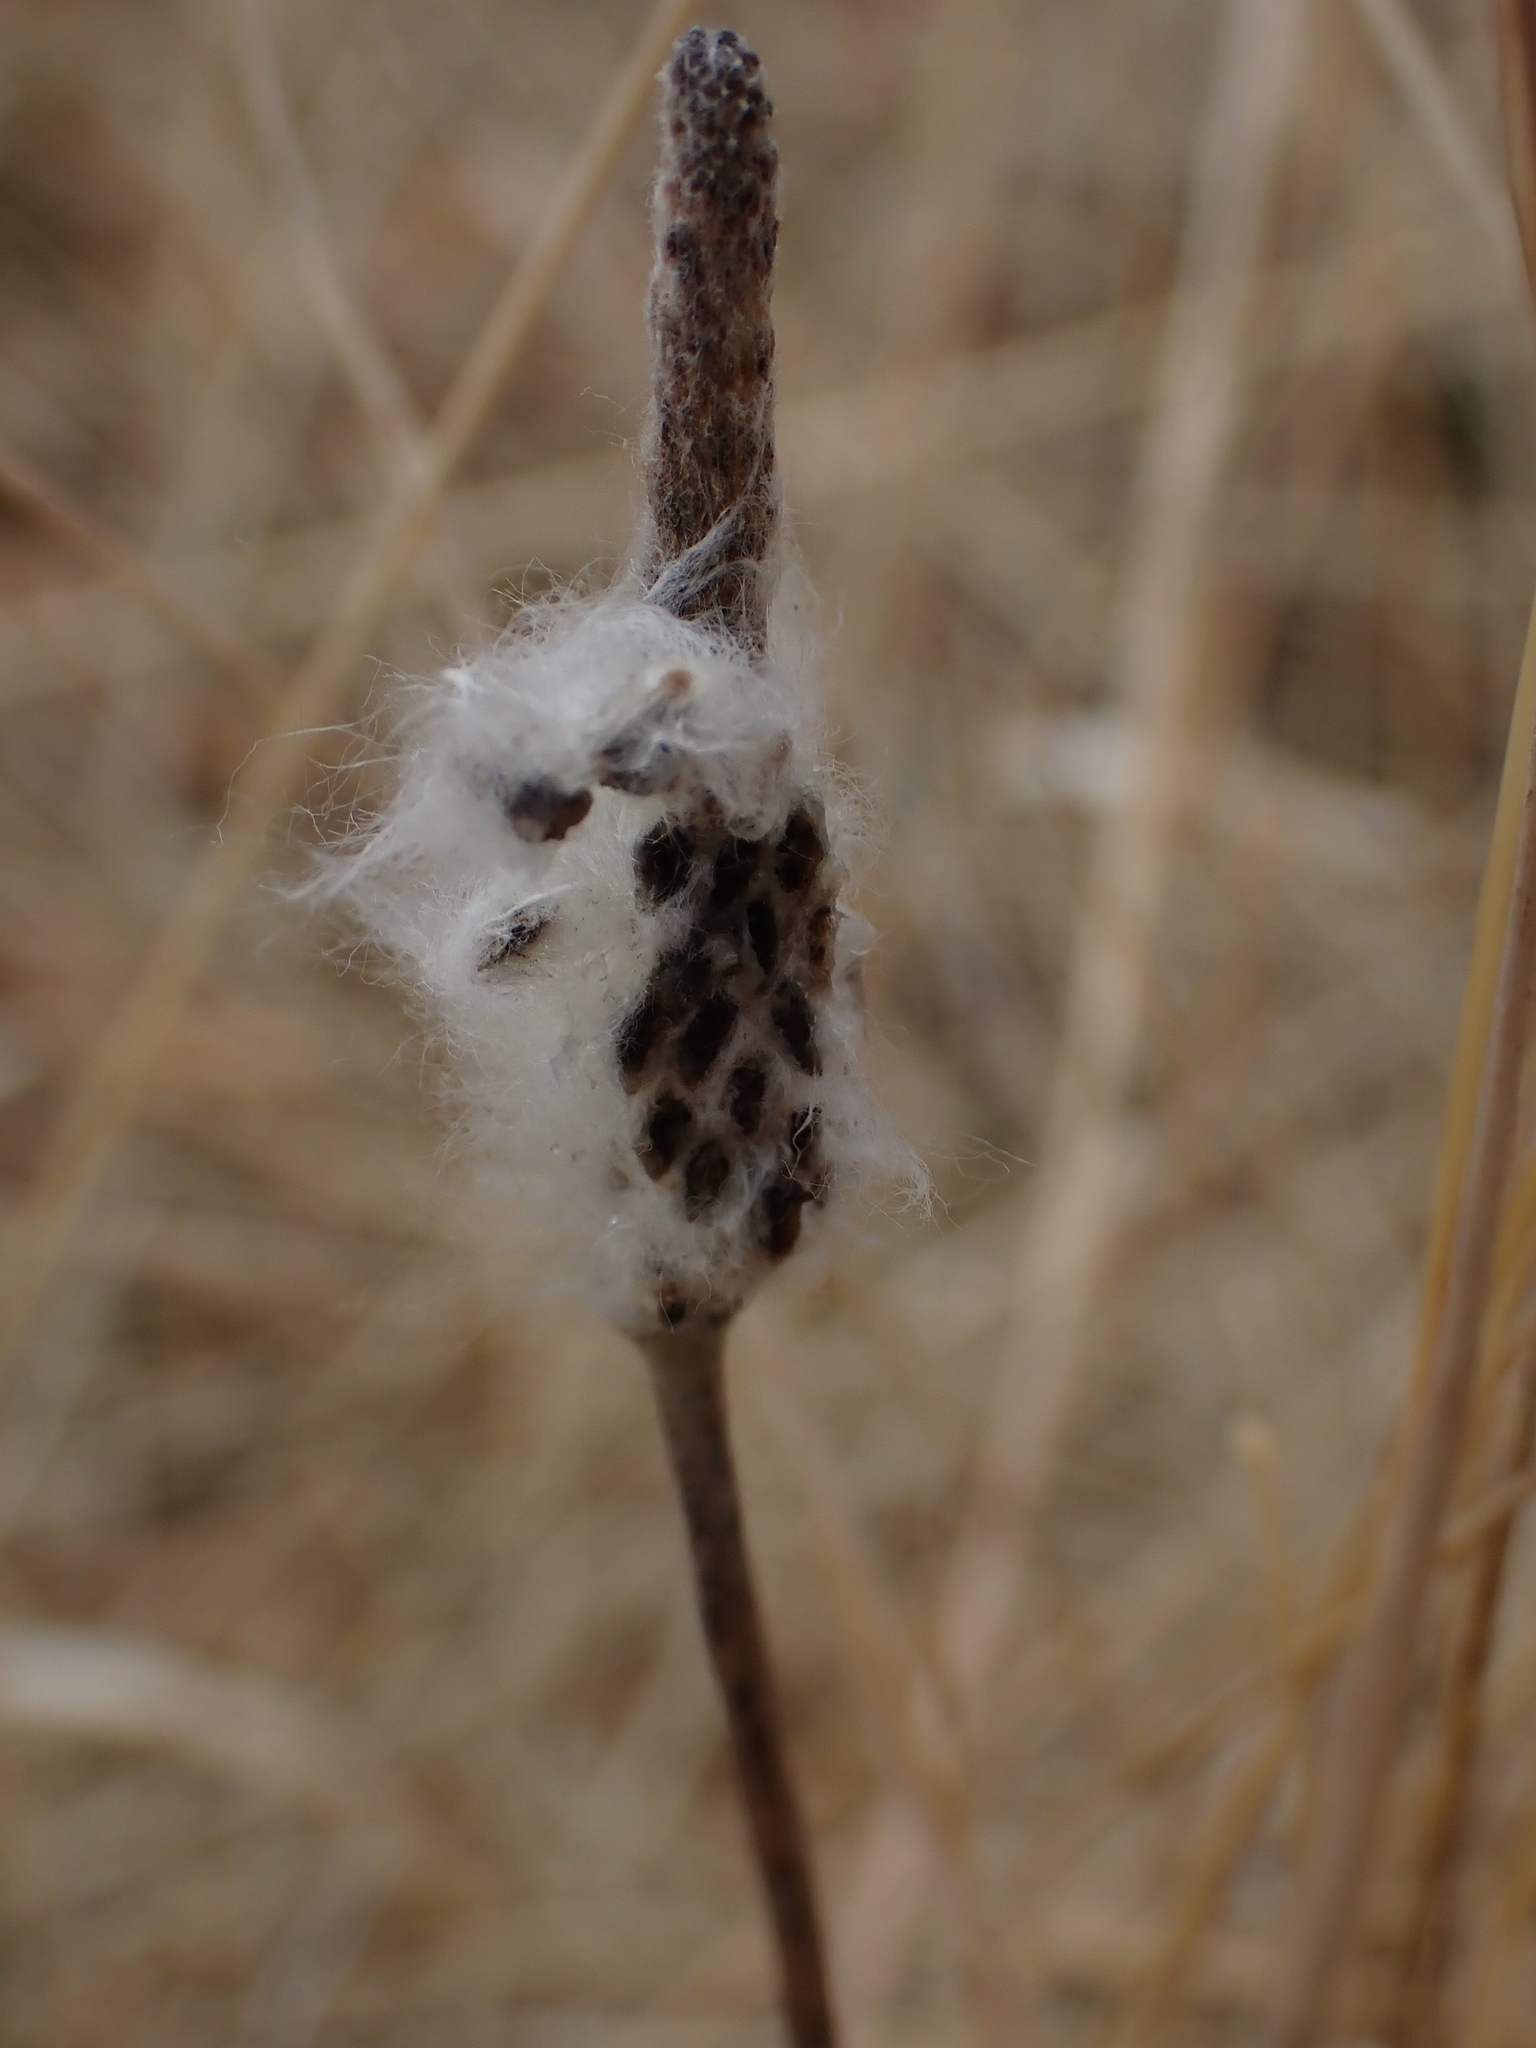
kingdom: Plantae
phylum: Tracheophyta
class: Magnoliopsida
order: Ranunculales
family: Ranunculaceae
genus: Anemone
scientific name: Anemone cylindrica
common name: Candle anemone
